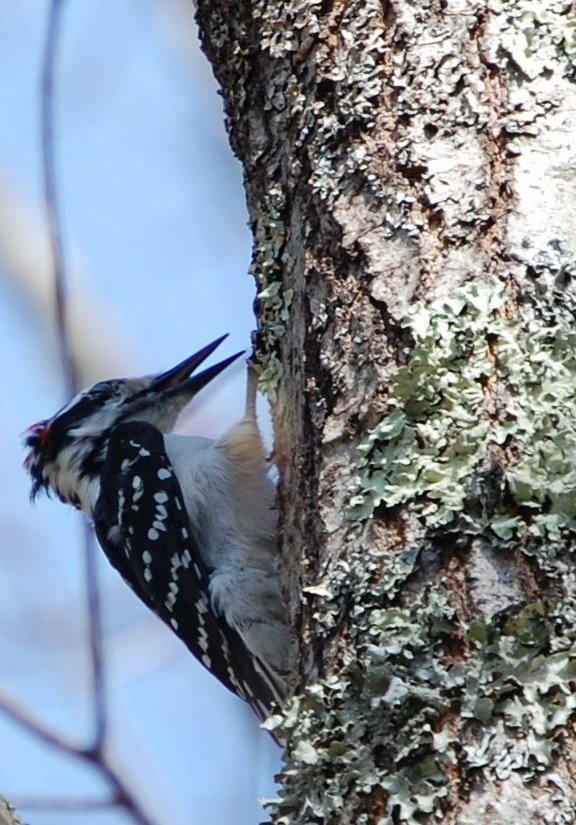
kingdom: Animalia
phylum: Chordata
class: Aves
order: Piciformes
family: Picidae
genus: Leuconotopicus
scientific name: Leuconotopicus villosus
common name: Hairy woodpecker
